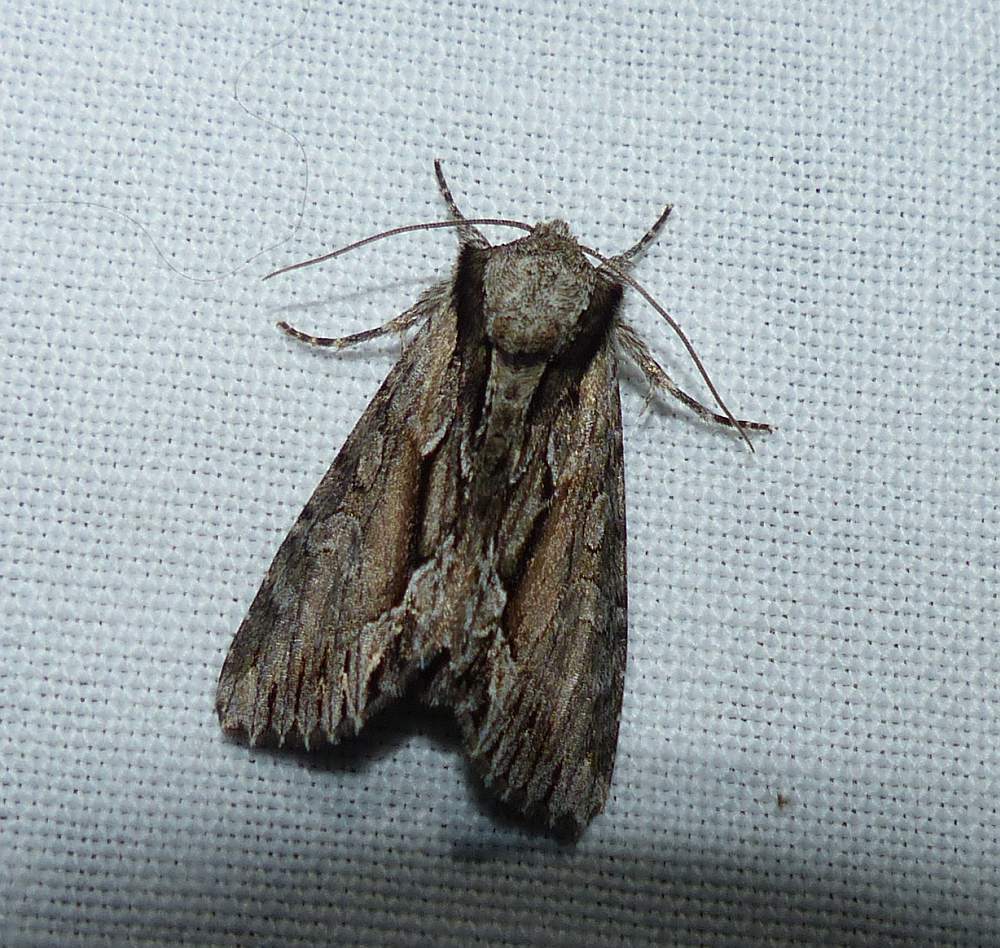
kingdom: Animalia
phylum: Arthropoda
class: Insecta
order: Lepidoptera
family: Noctuidae
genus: Hyppa
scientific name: Hyppa xylinoides
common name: Common hyppa moth
